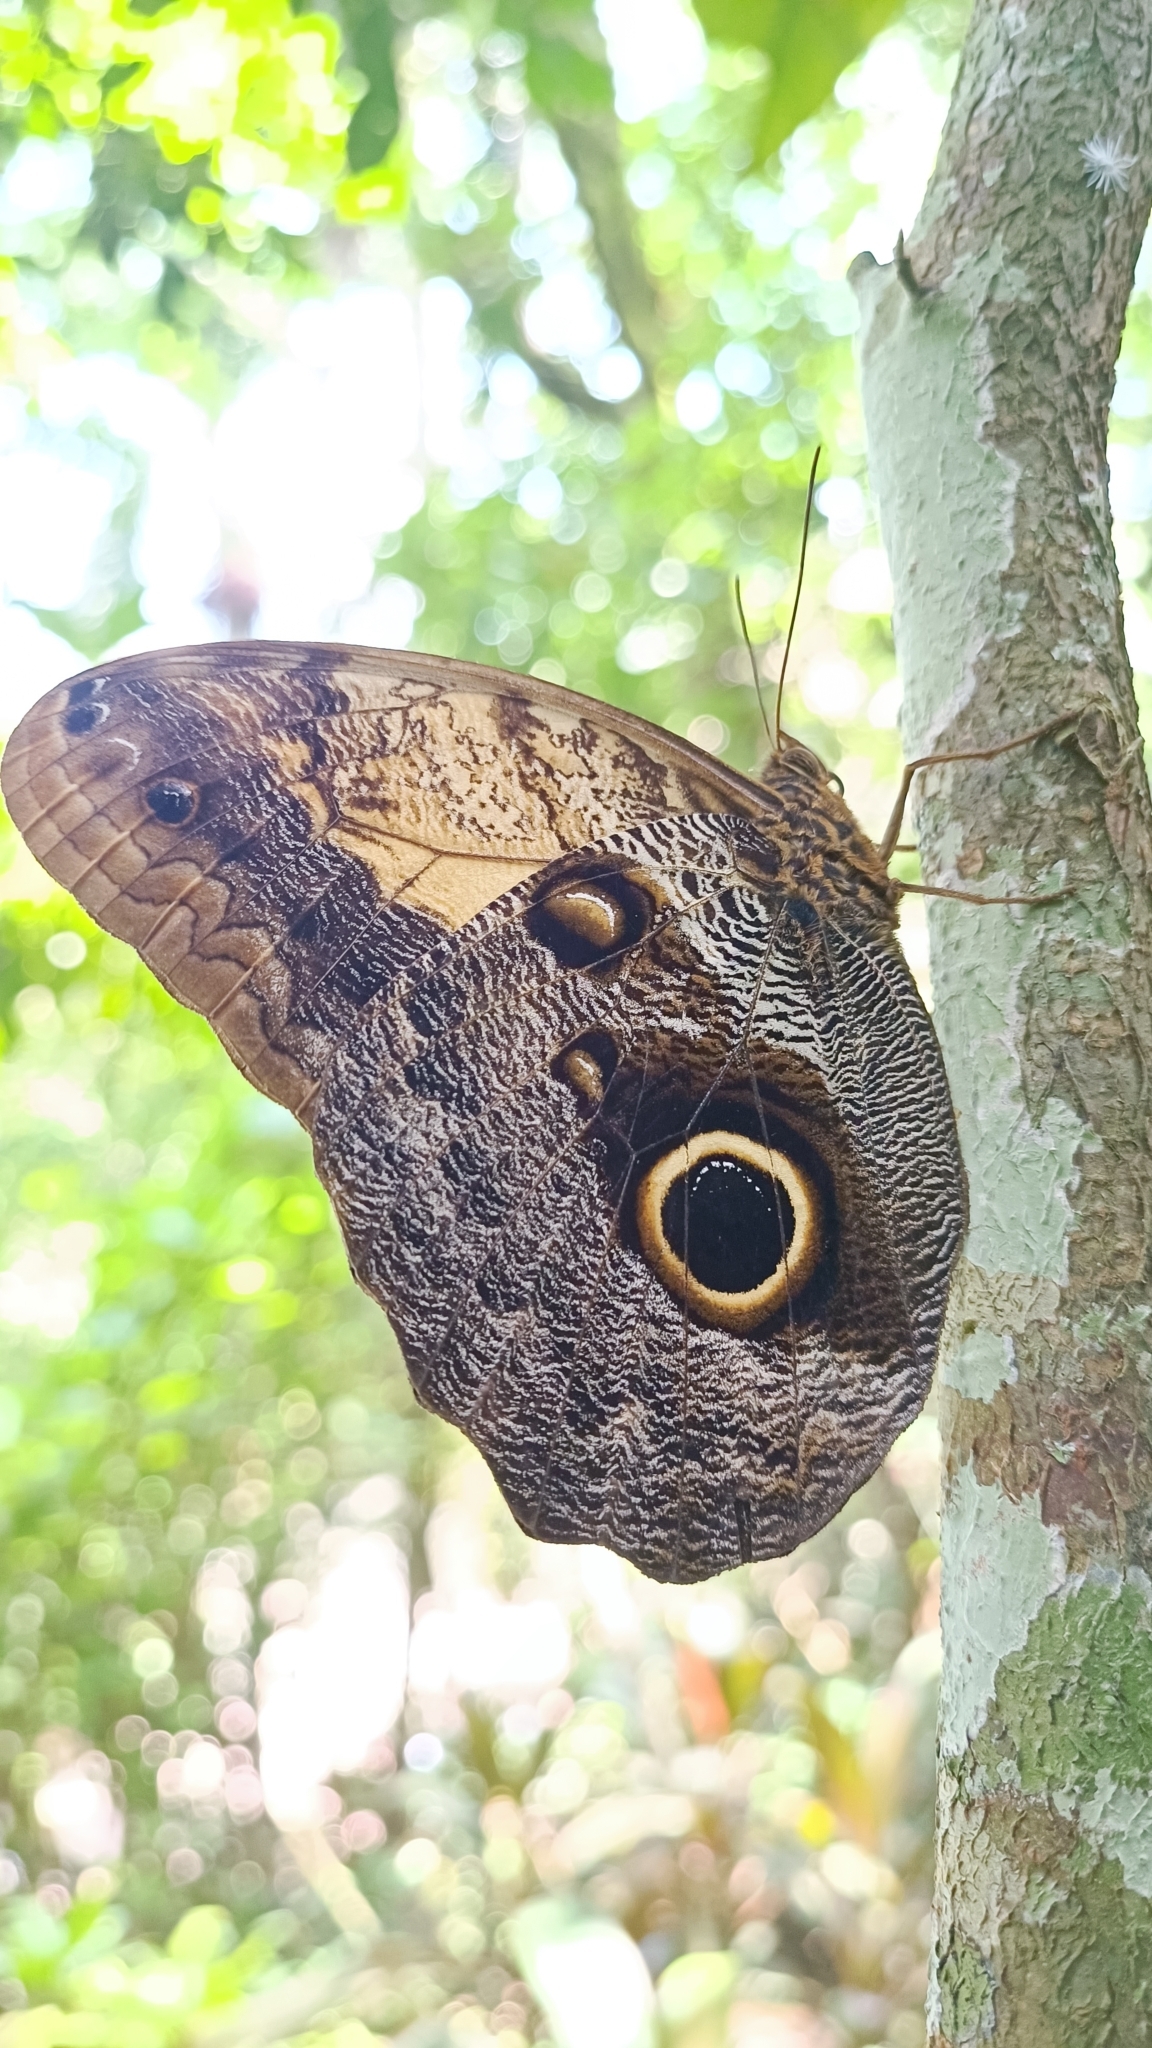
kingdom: Animalia
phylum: Arthropoda
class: Insecta
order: Lepidoptera
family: Nymphalidae
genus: Caligo
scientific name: Caligo telamonius
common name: Pale owl-butterfly
